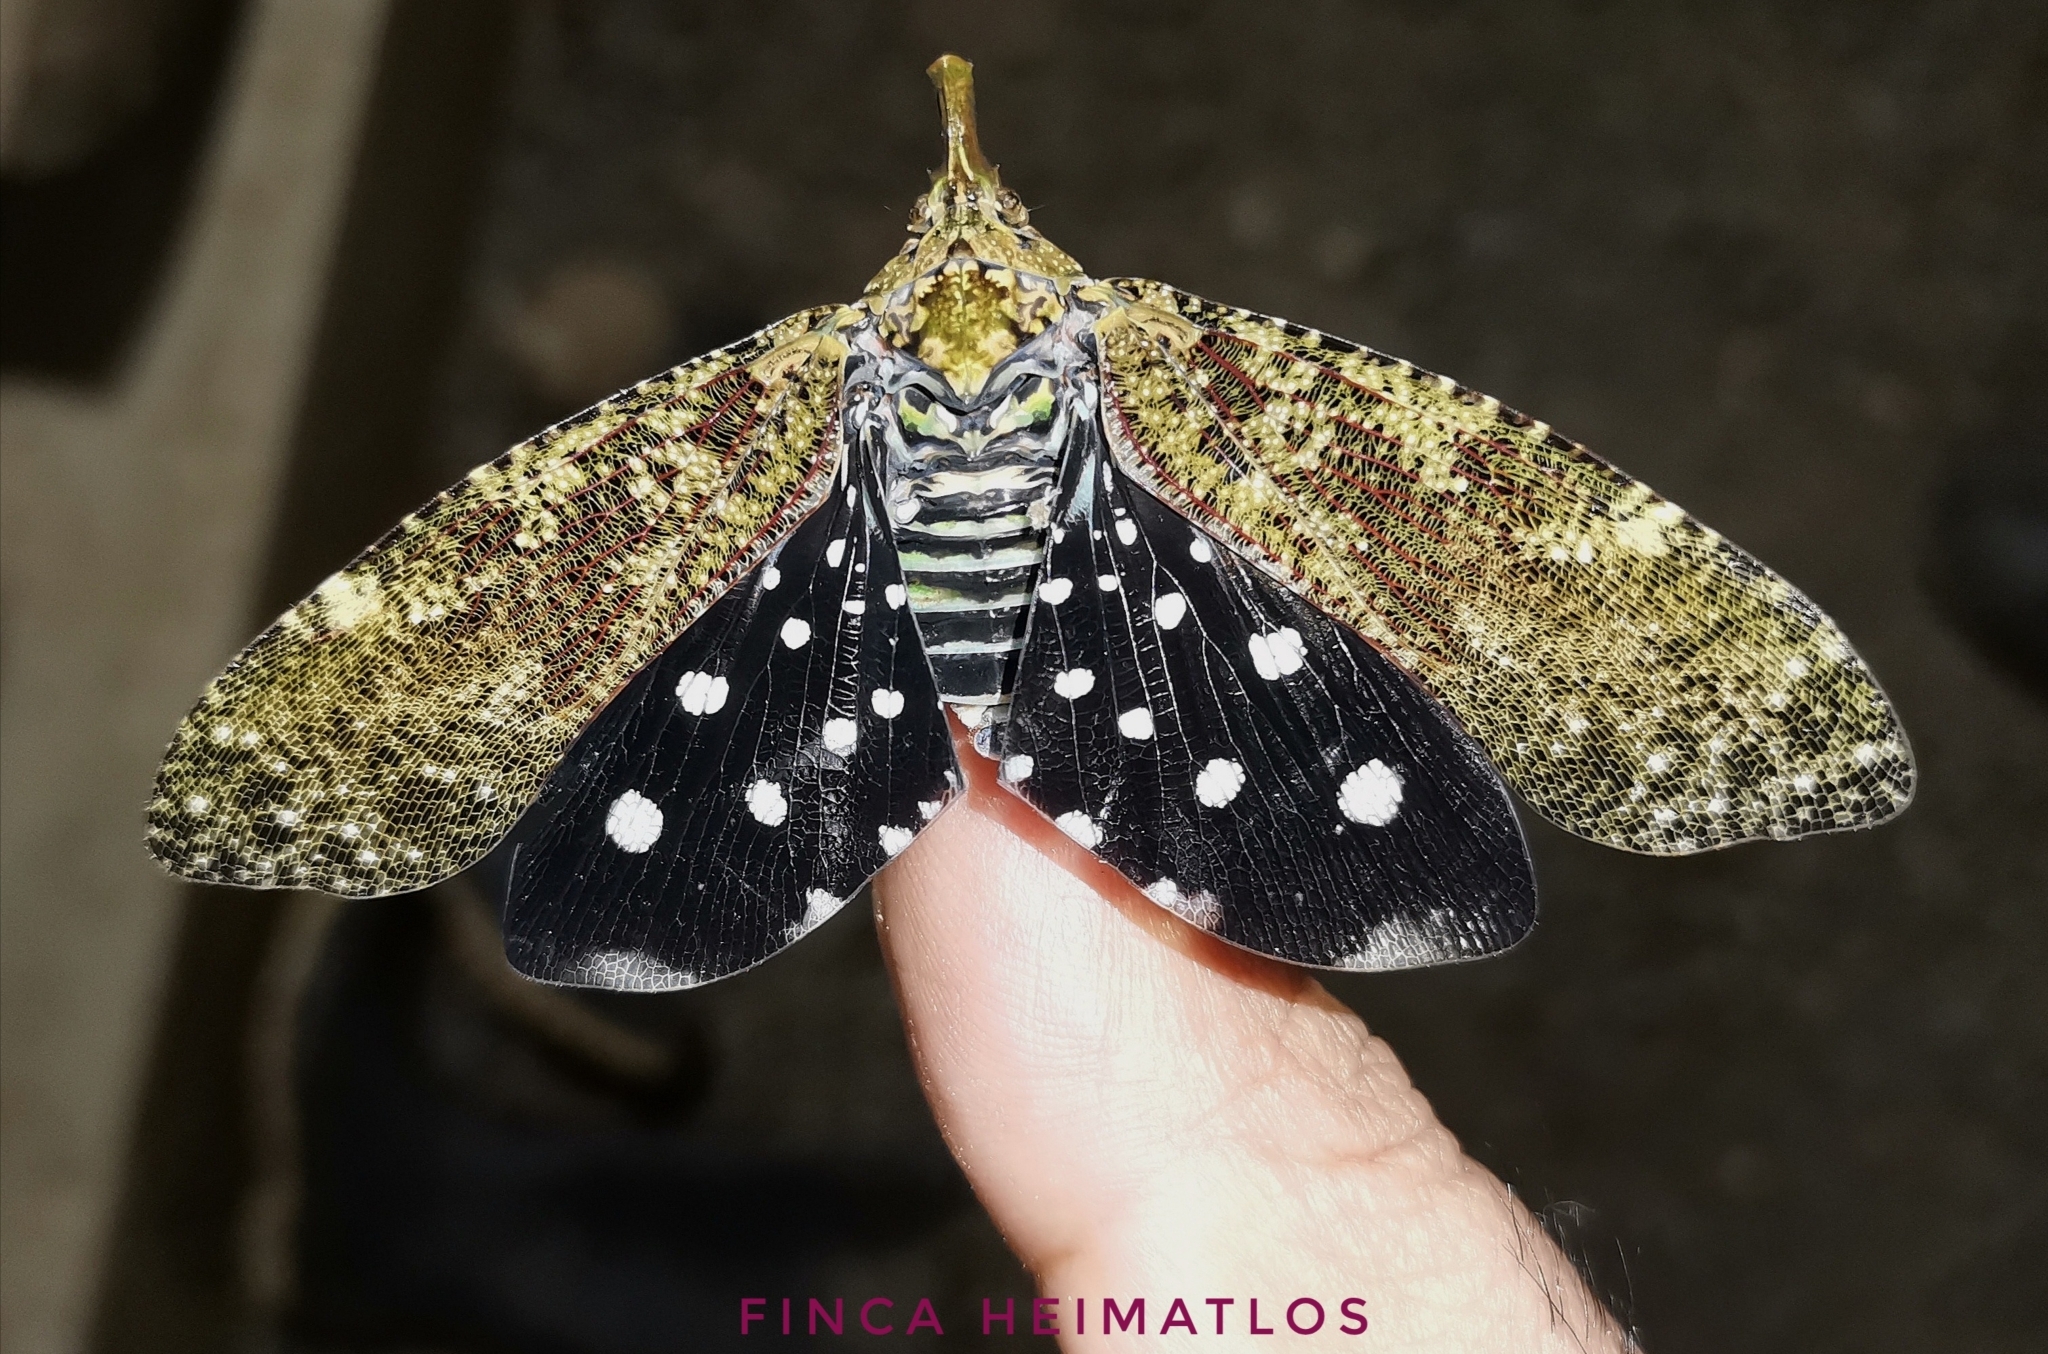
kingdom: Animalia
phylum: Arthropoda
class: Insecta
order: Hemiptera
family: Fulgoridae
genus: Diareusa
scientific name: Diareusa imitatrix
